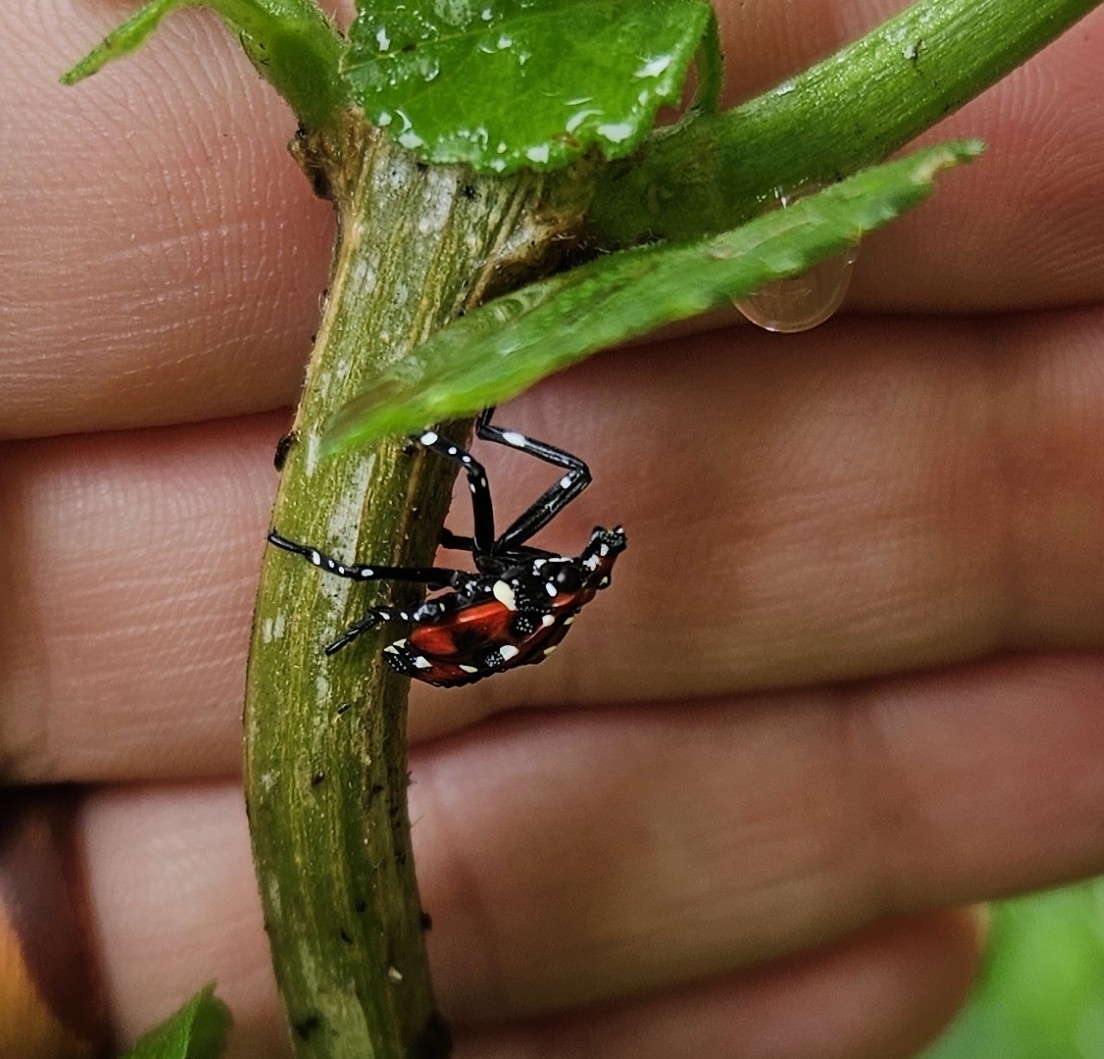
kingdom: Animalia
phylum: Arthropoda
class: Insecta
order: Hemiptera
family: Fulgoridae
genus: Lycorma
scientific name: Lycorma delicatula
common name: Spotted lanternfly
